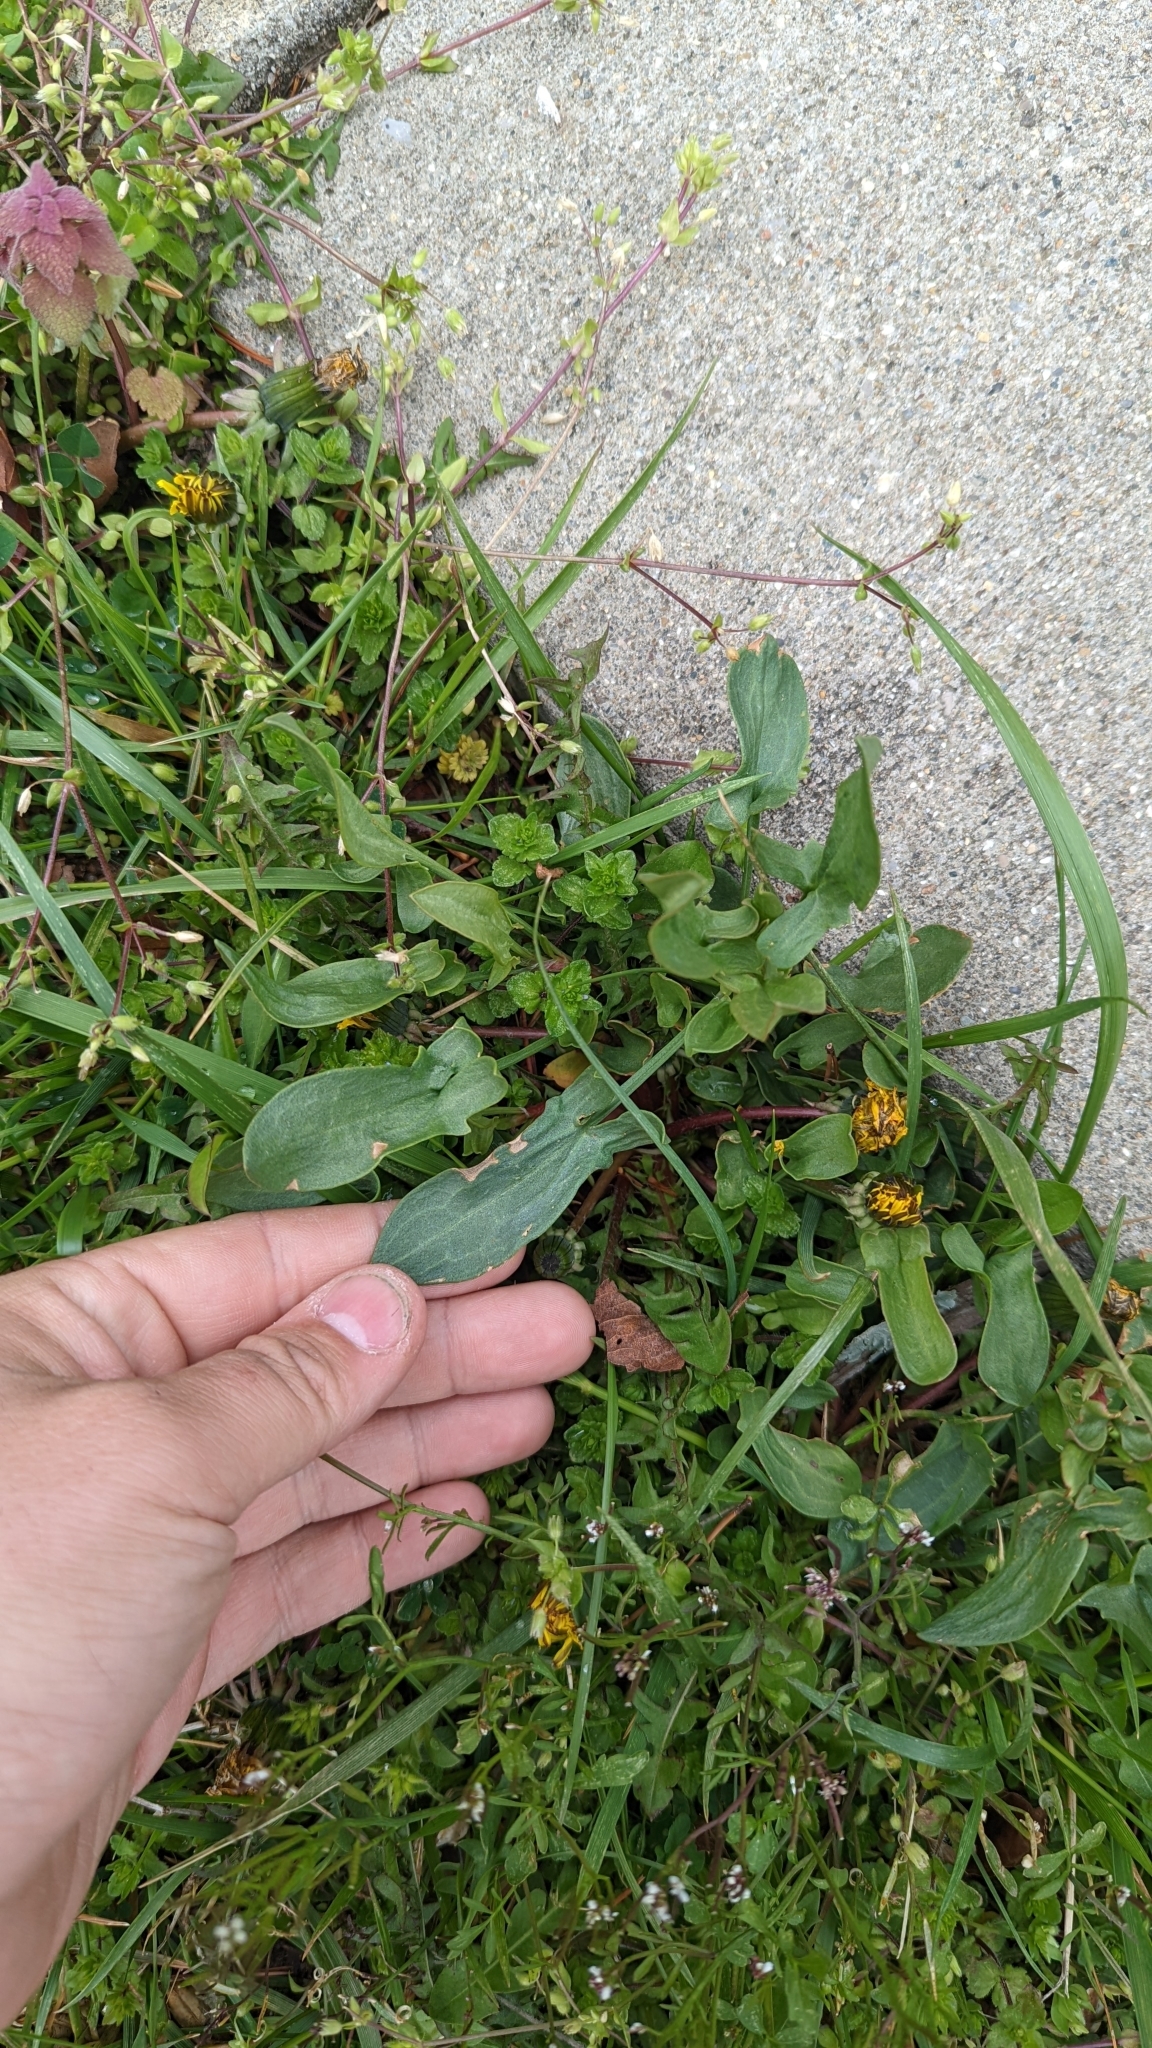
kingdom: Plantae
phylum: Tracheophyta
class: Magnoliopsida
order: Caryophyllales
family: Polygonaceae
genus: Rumex
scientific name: Rumex acetosella
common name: Common sheep sorrel
